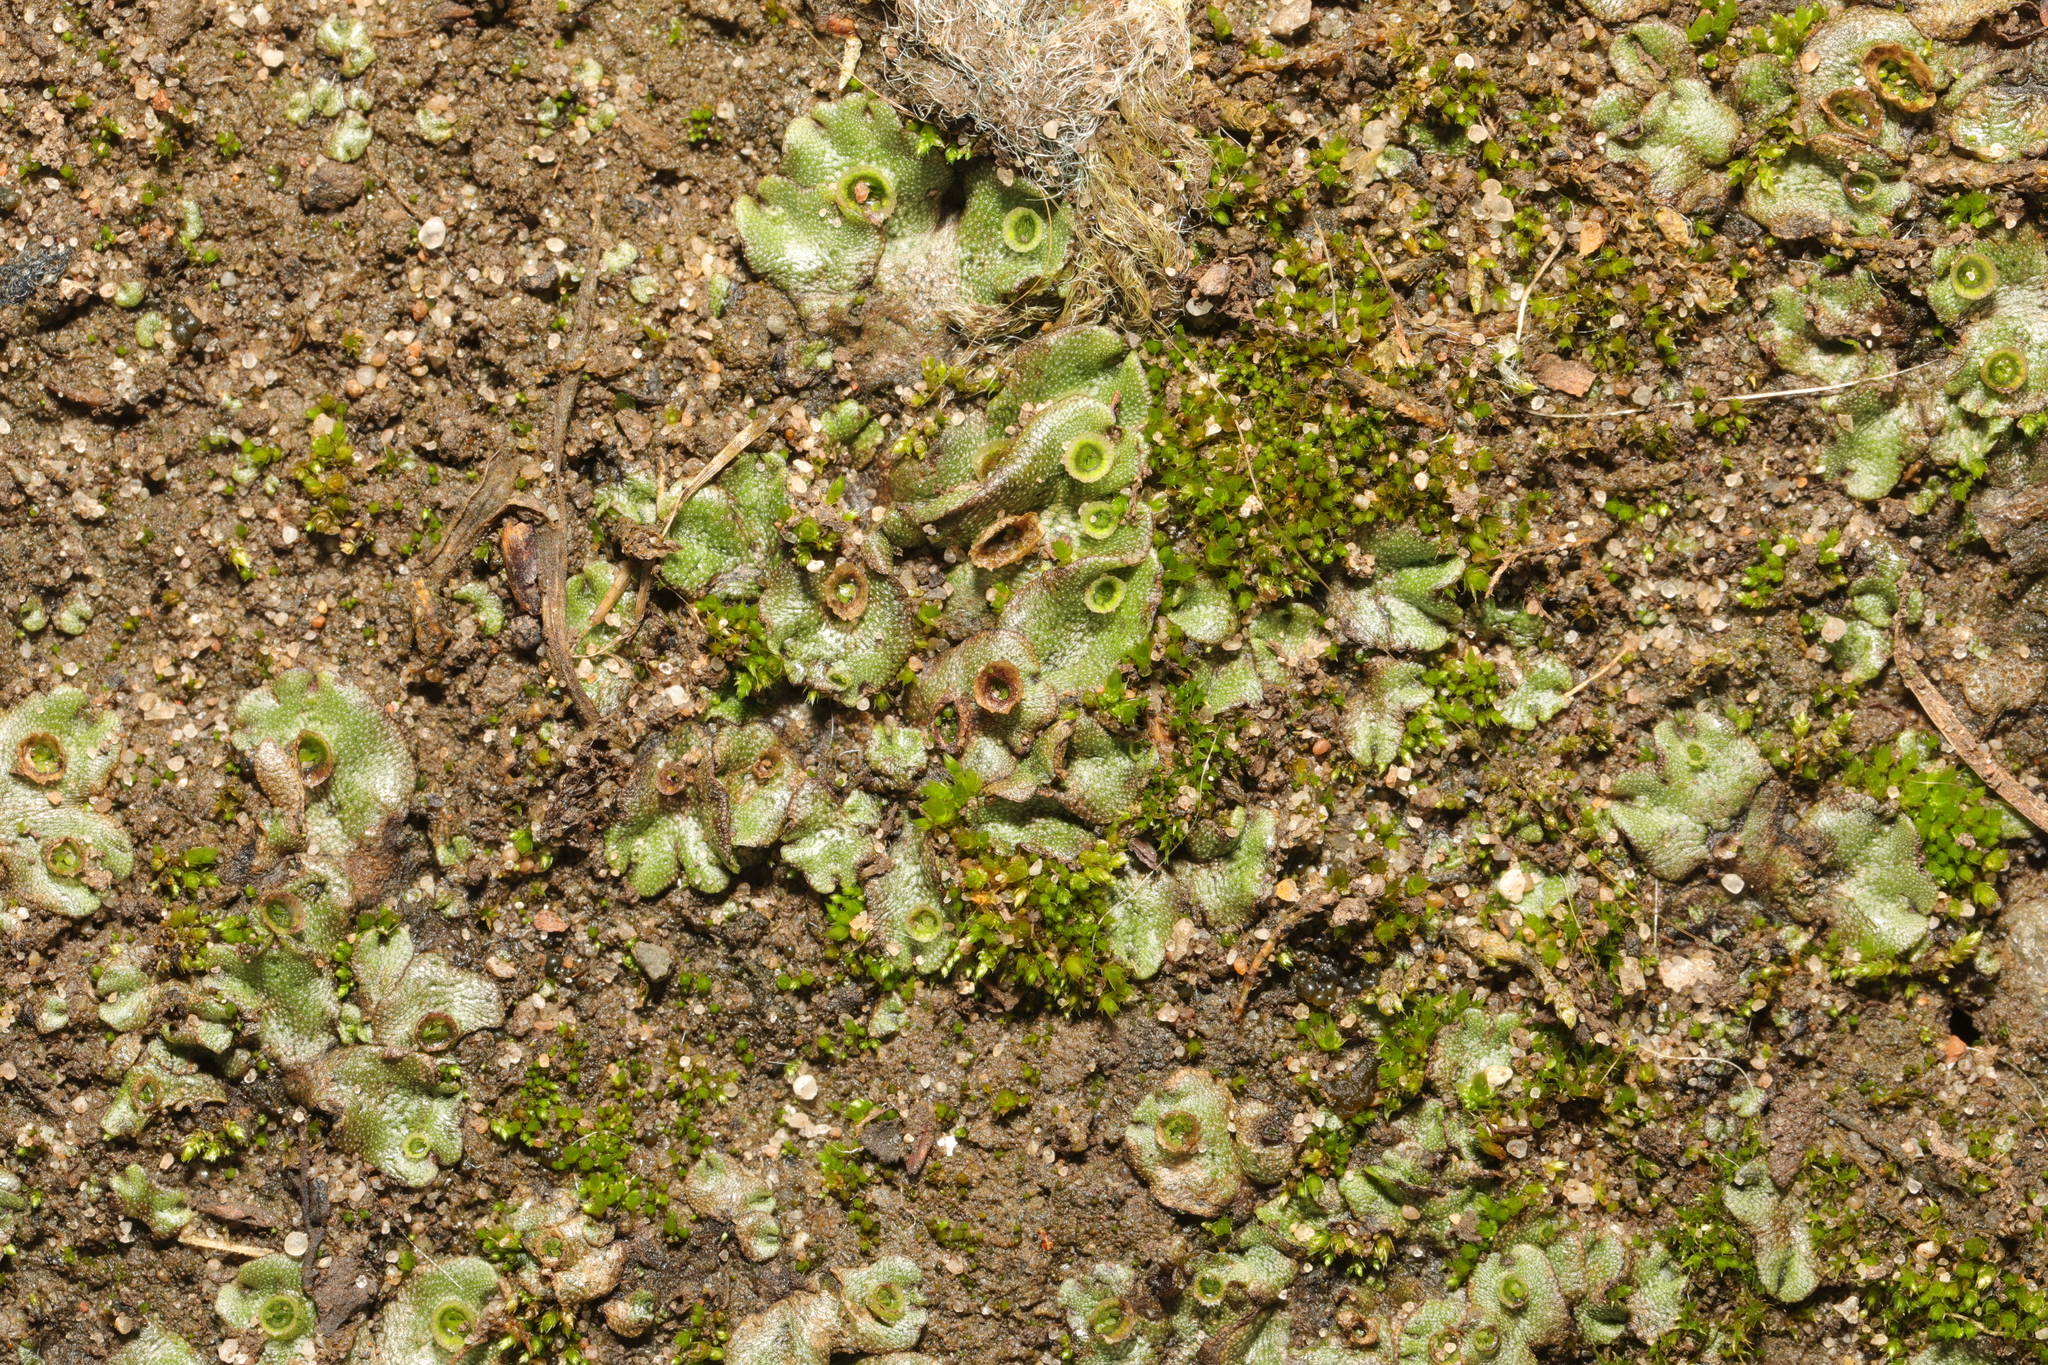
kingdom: Plantae
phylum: Marchantiophyta
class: Marchantiopsida
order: Marchantiales
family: Marchantiaceae
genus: Marchantia
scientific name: Marchantia polymorpha
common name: Common liverwort
